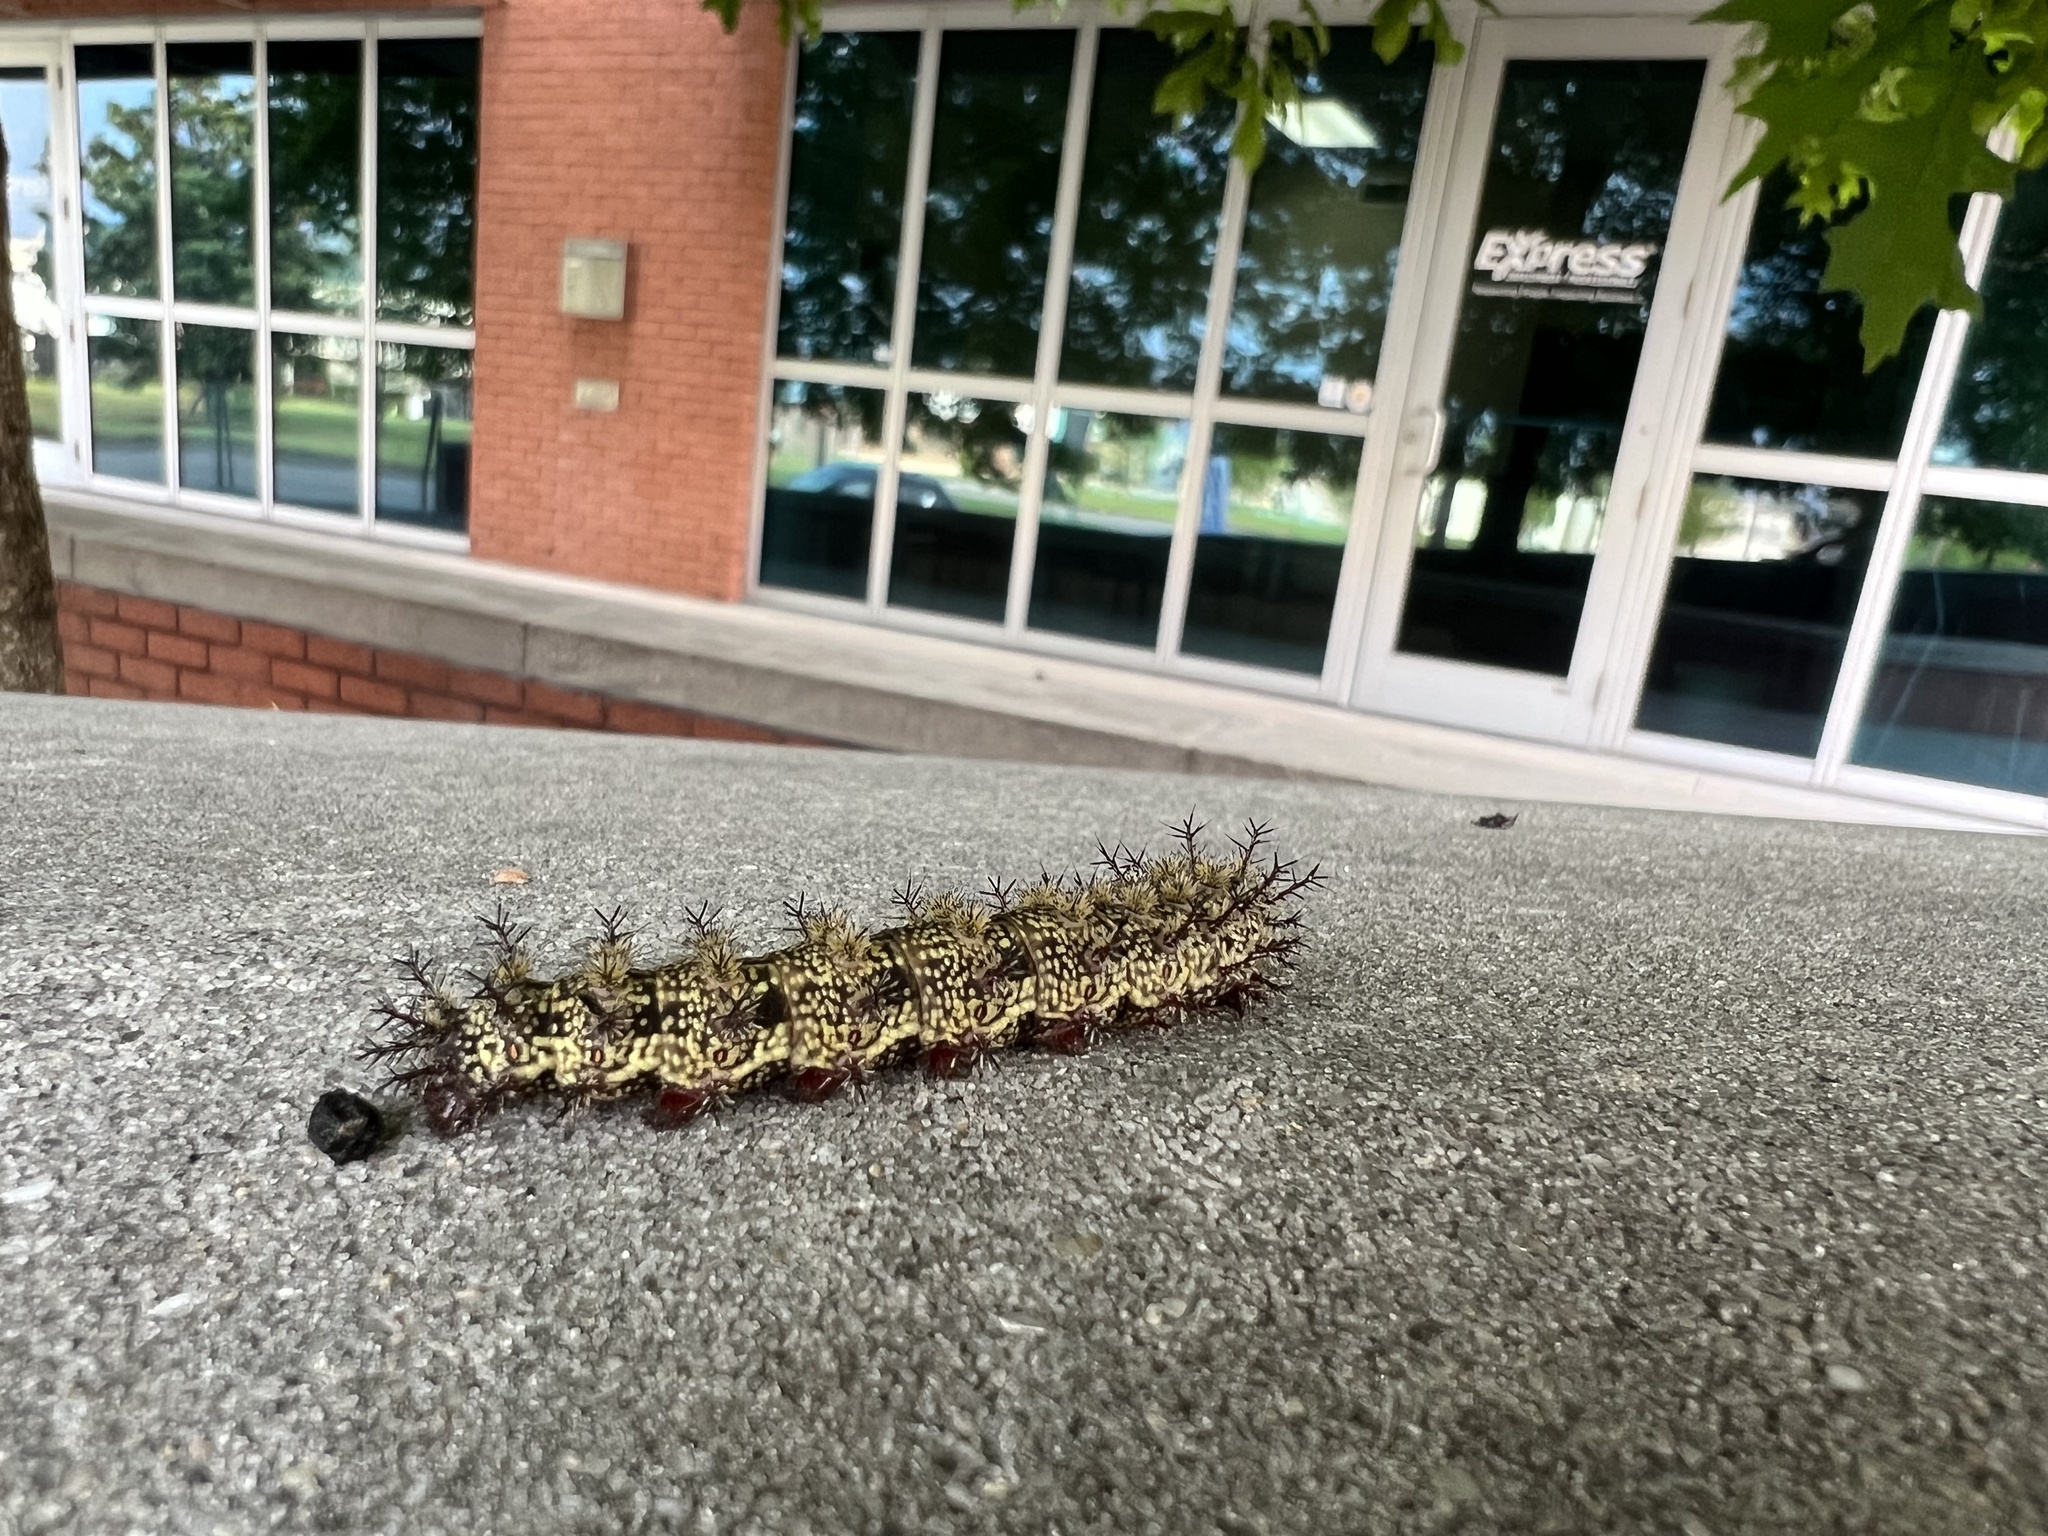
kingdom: Animalia
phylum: Arthropoda
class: Insecta
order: Lepidoptera
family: Saturniidae
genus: Hemileuca
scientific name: Hemileuca maia
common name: Eastern buckmoth
